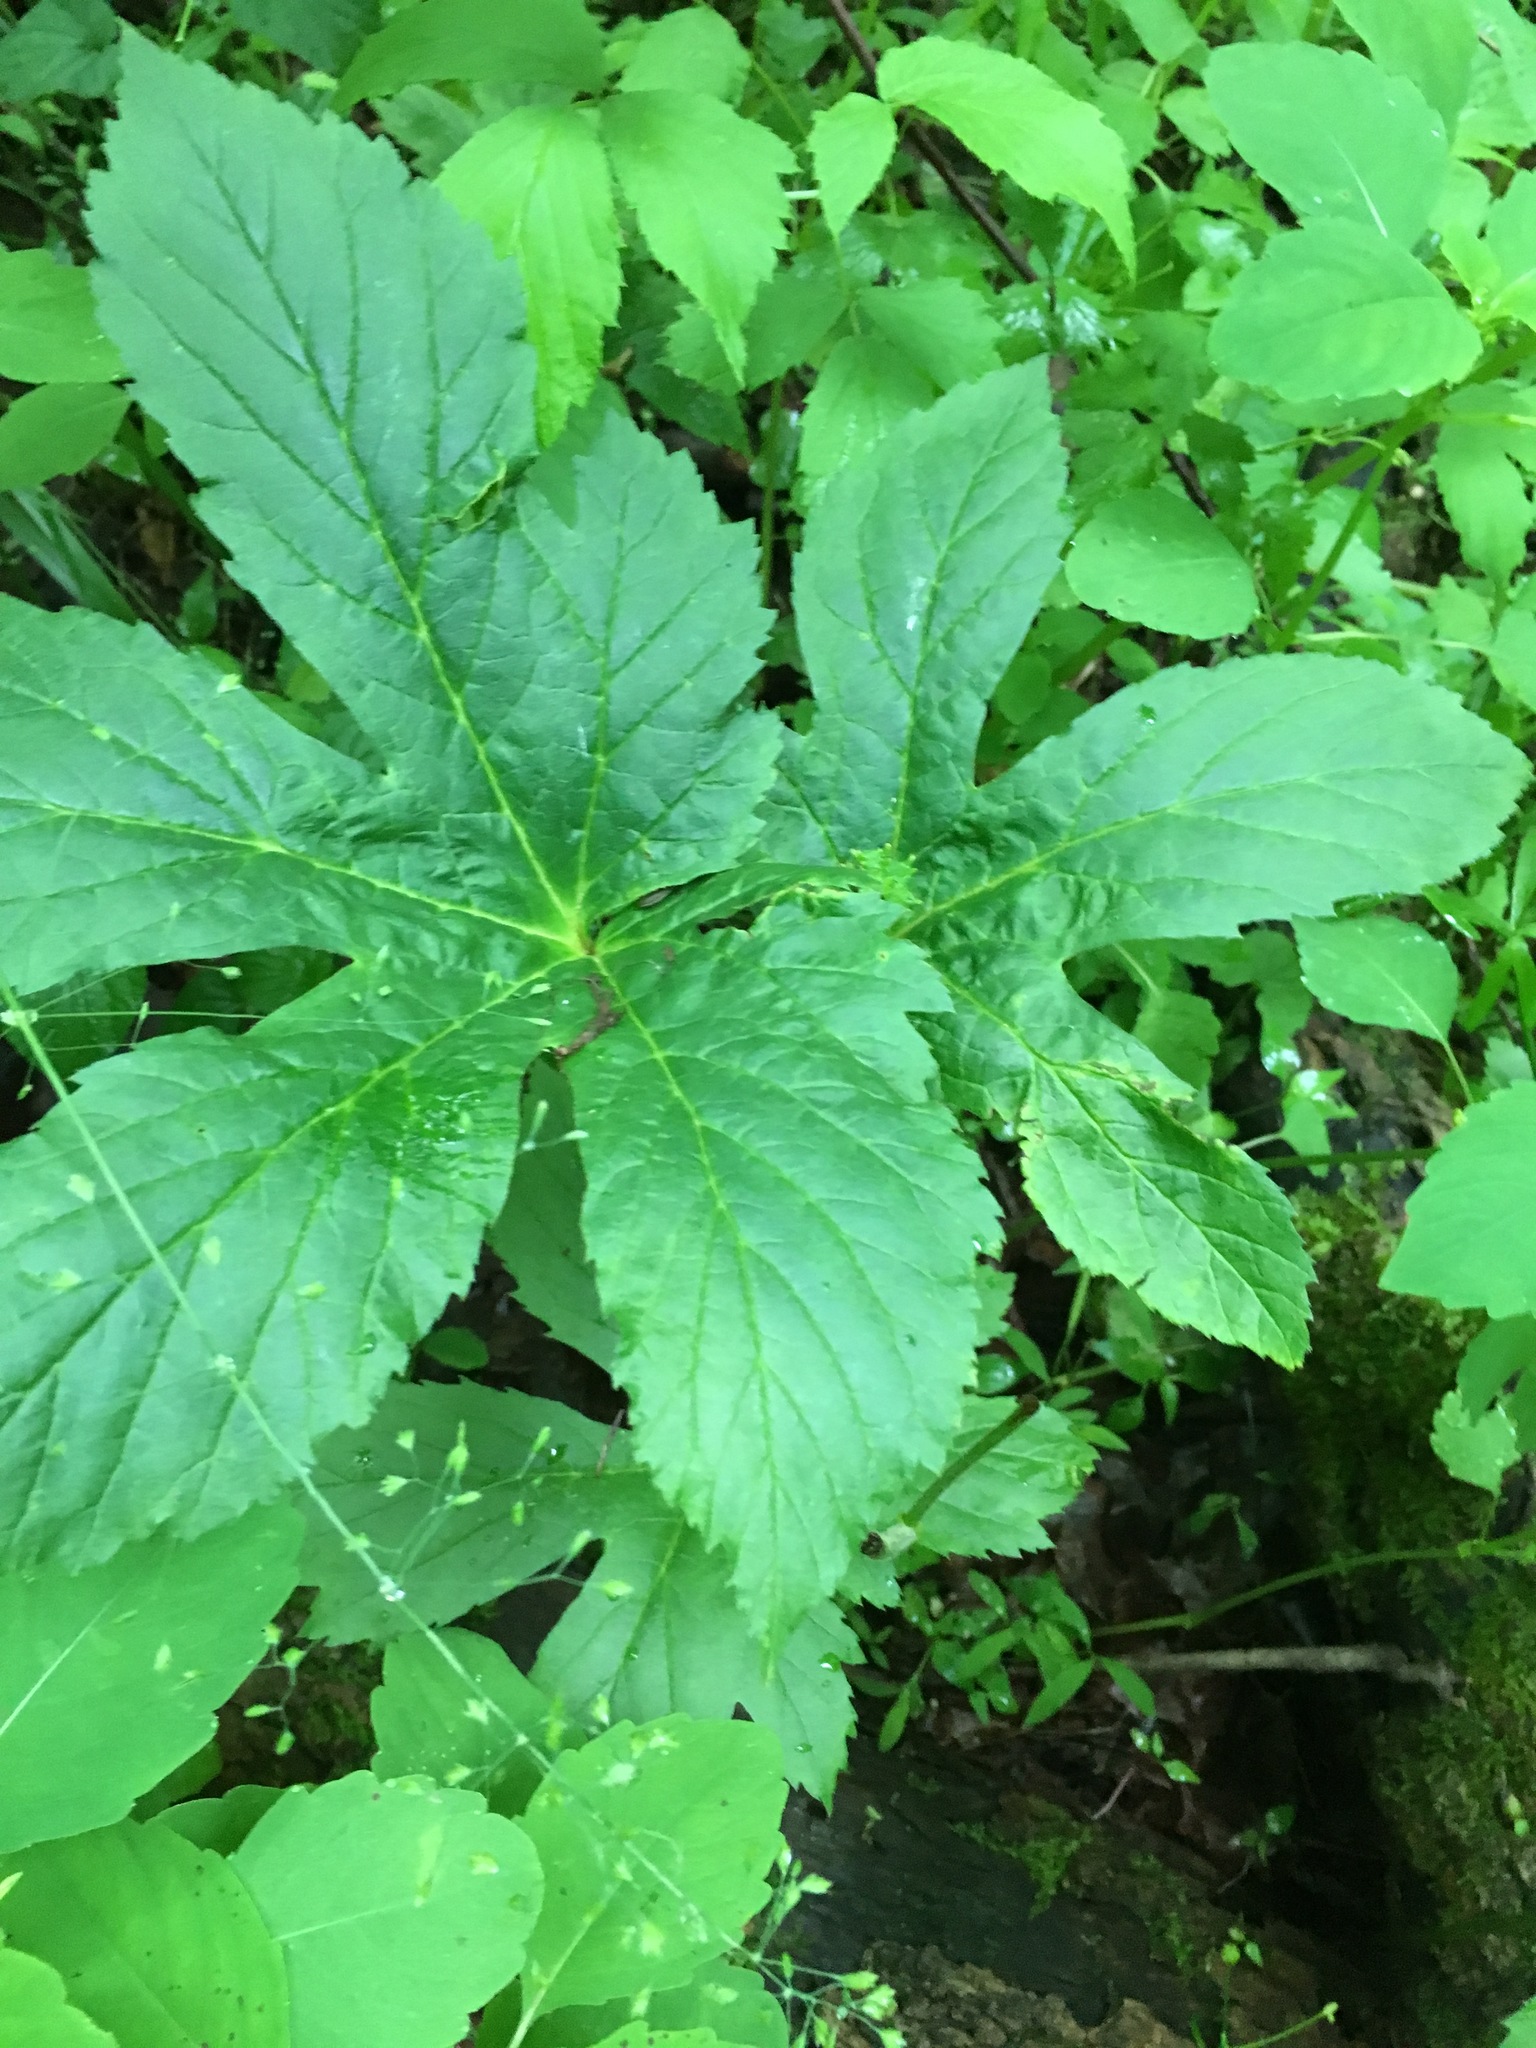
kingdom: Plantae
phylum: Tracheophyta
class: Magnoliopsida
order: Ranunculales
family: Ranunculaceae
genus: Hydrastis
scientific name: Hydrastis canadensis
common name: Goldenseal
